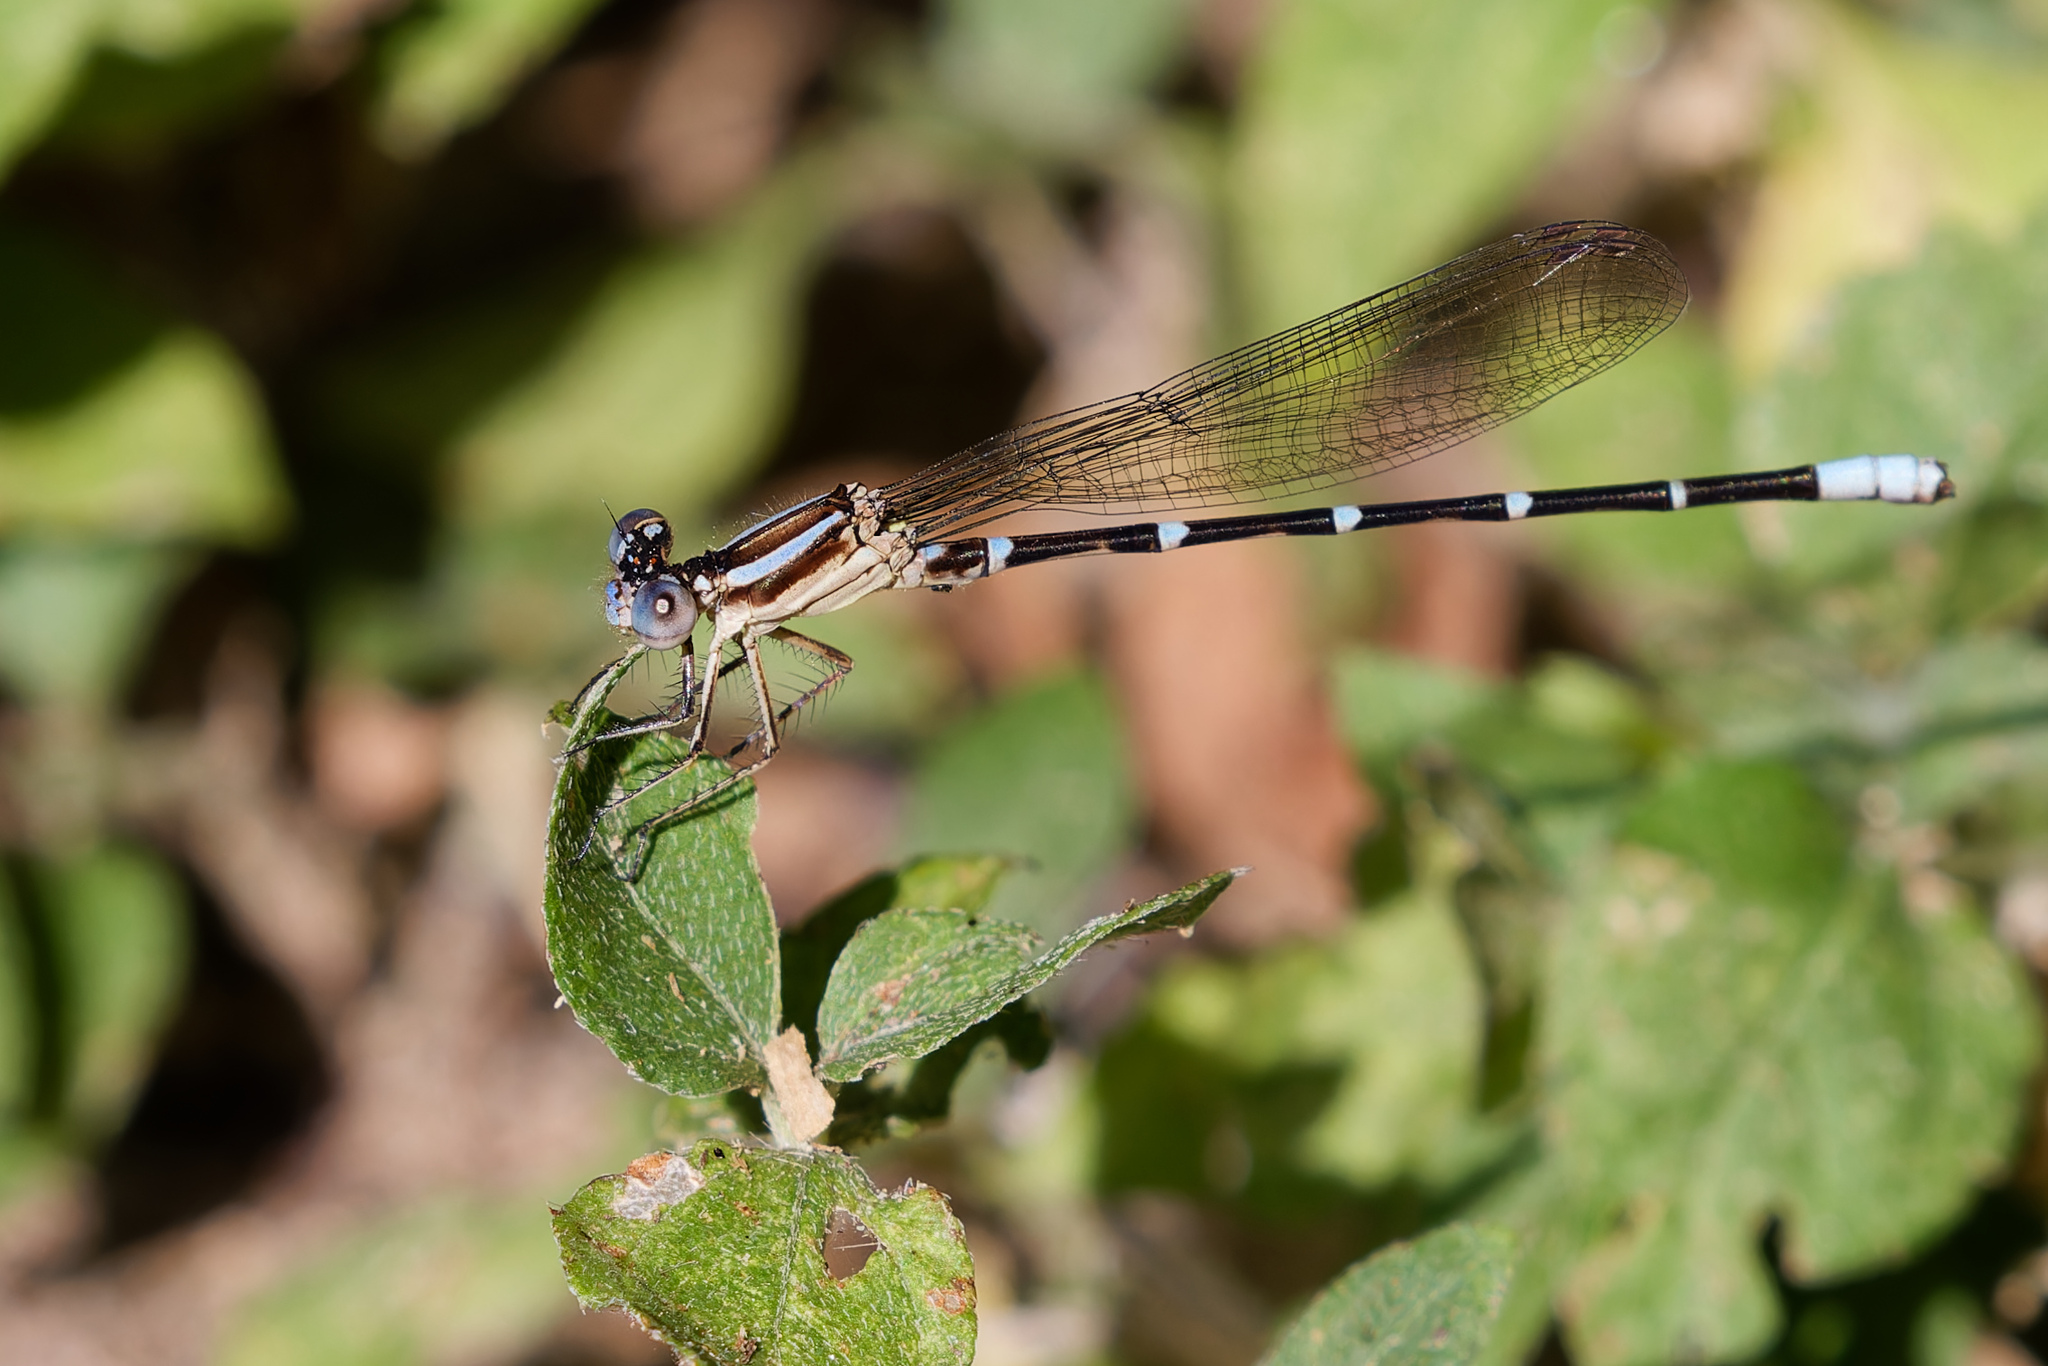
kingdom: Animalia
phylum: Arthropoda
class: Insecta
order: Odonata
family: Coenagrionidae
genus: Argia
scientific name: Argia sedula
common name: Blue-ringed dancer
